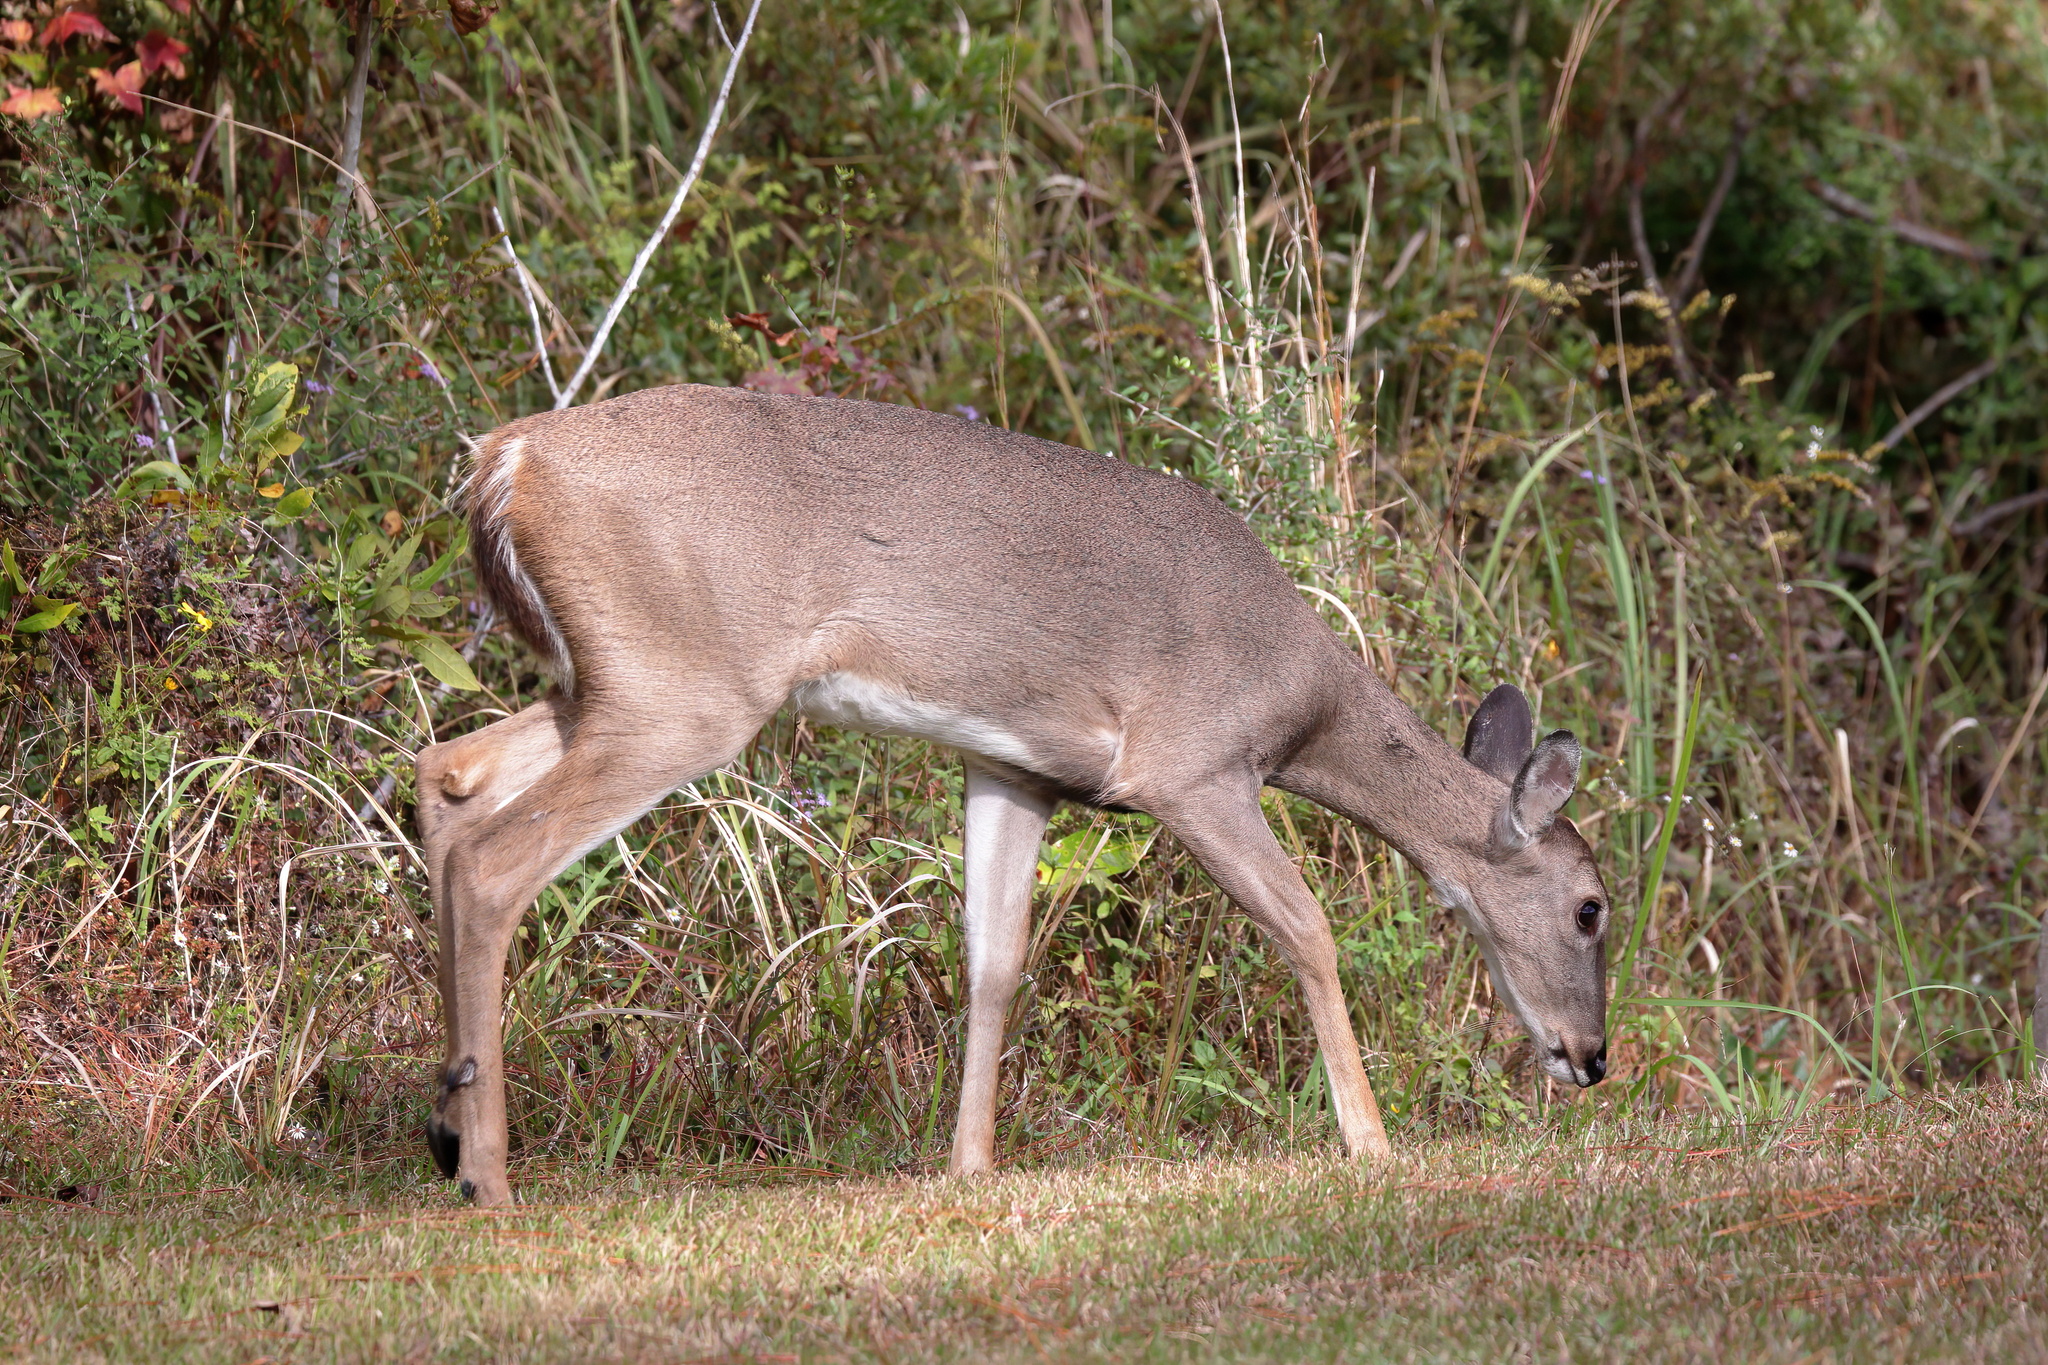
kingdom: Animalia
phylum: Chordata
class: Mammalia
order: Artiodactyla
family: Cervidae
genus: Odocoileus
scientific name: Odocoileus virginianus
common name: White-tailed deer
